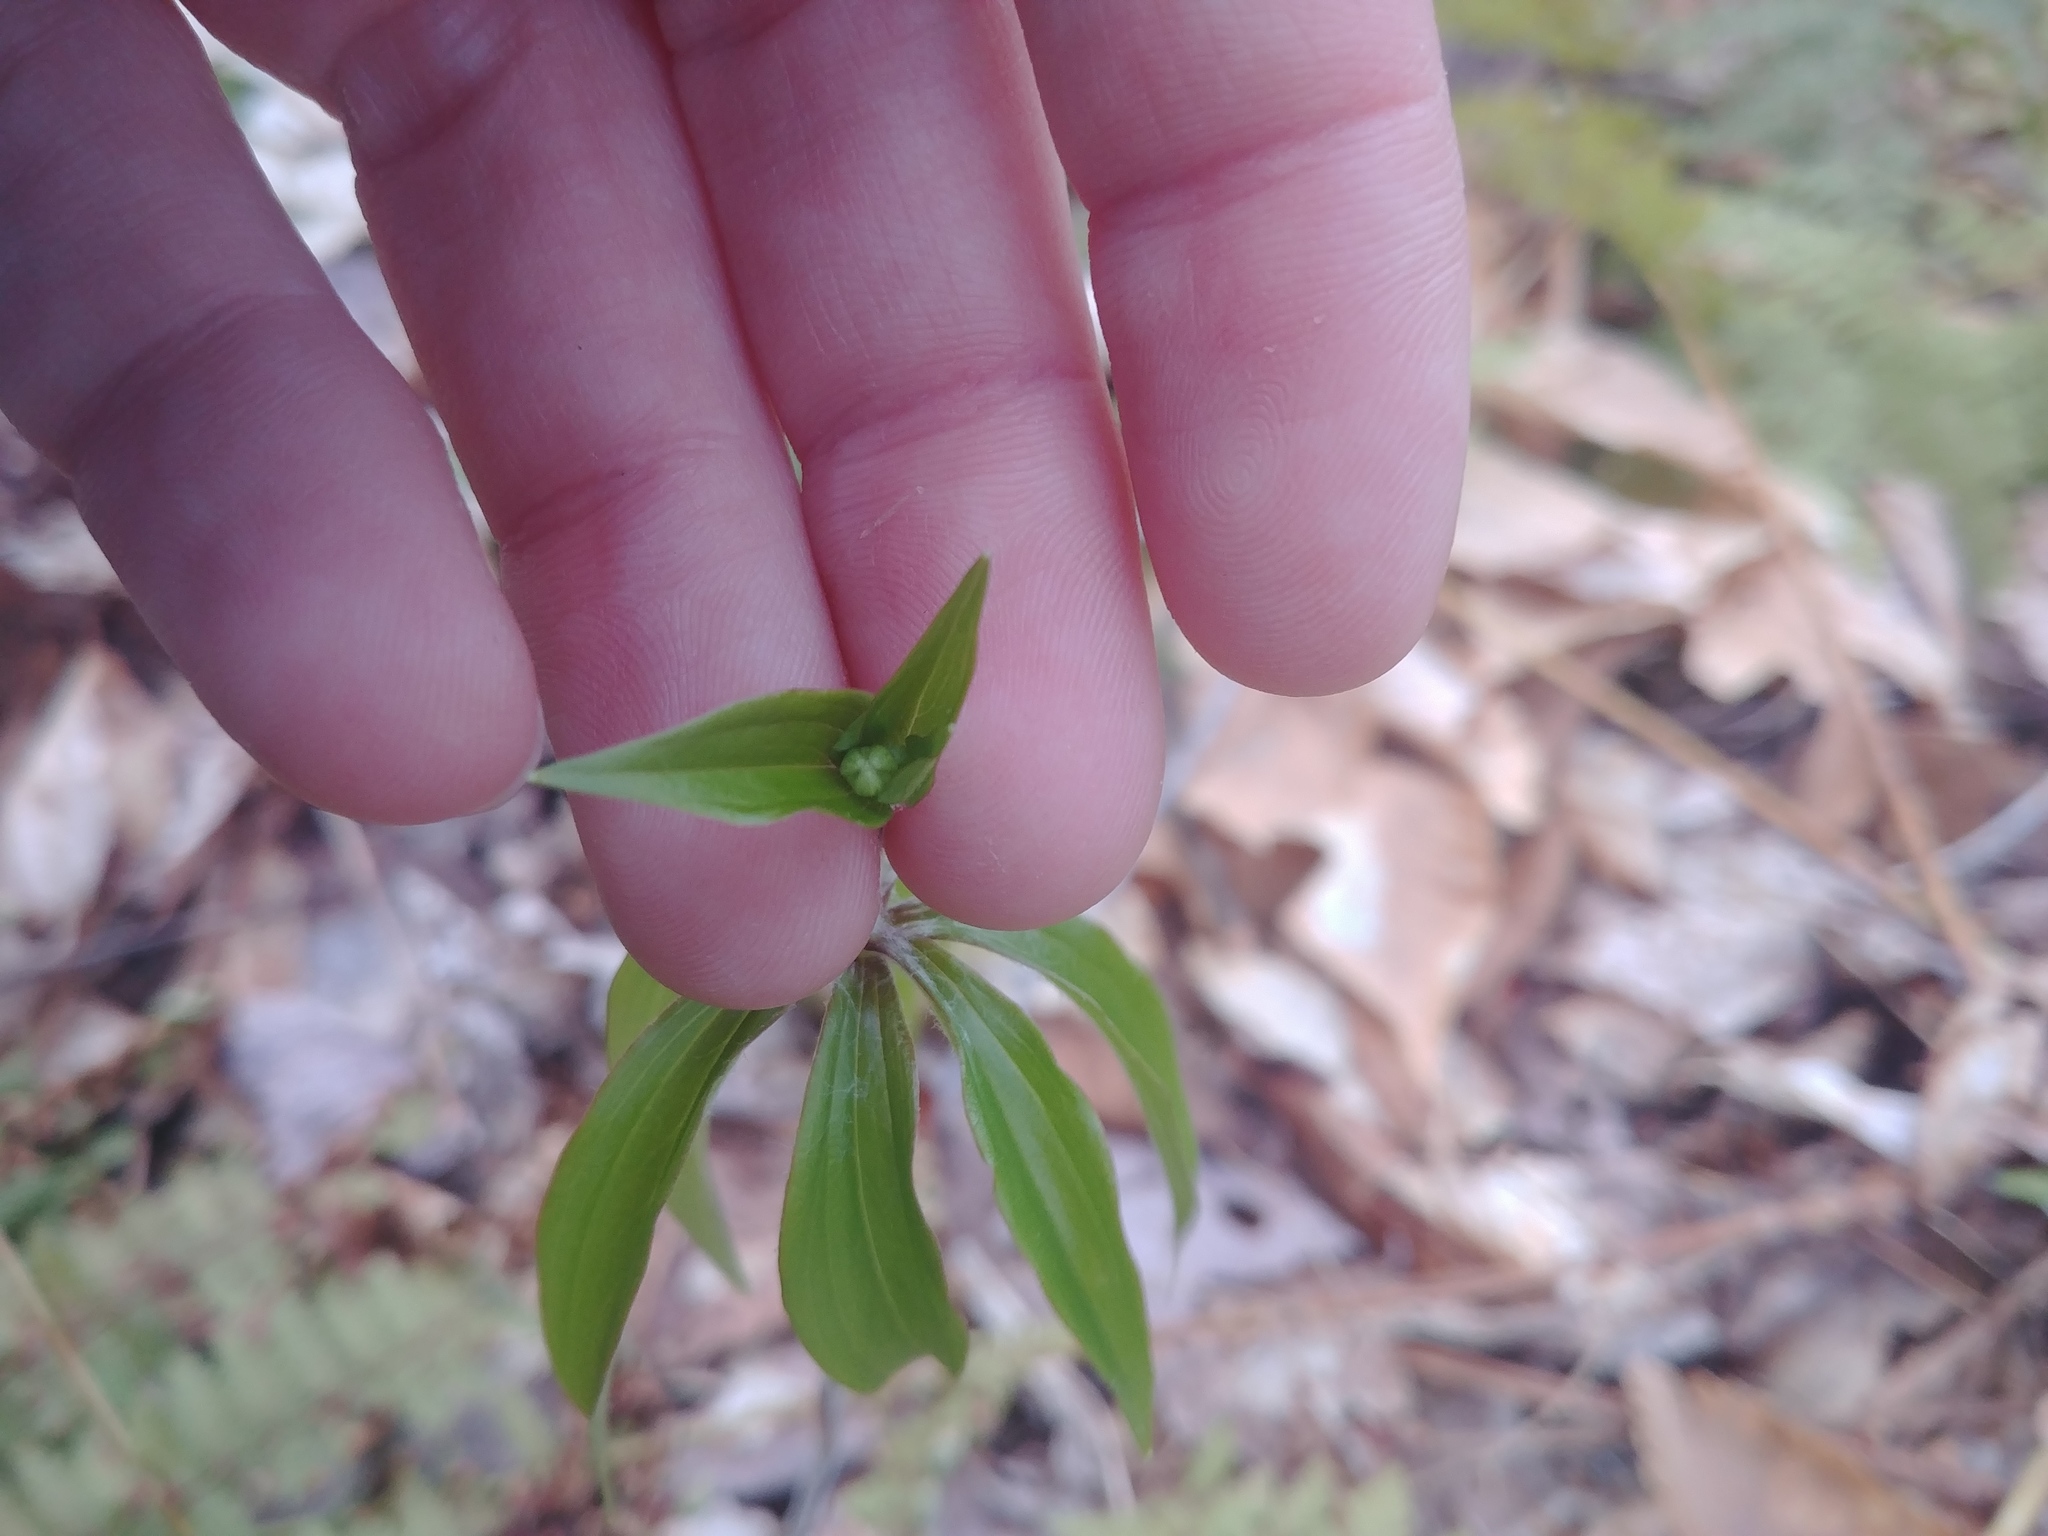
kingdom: Plantae
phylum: Tracheophyta
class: Liliopsida
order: Liliales
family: Liliaceae
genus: Medeola
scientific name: Medeola virginiana
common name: Indian cucumber-root
